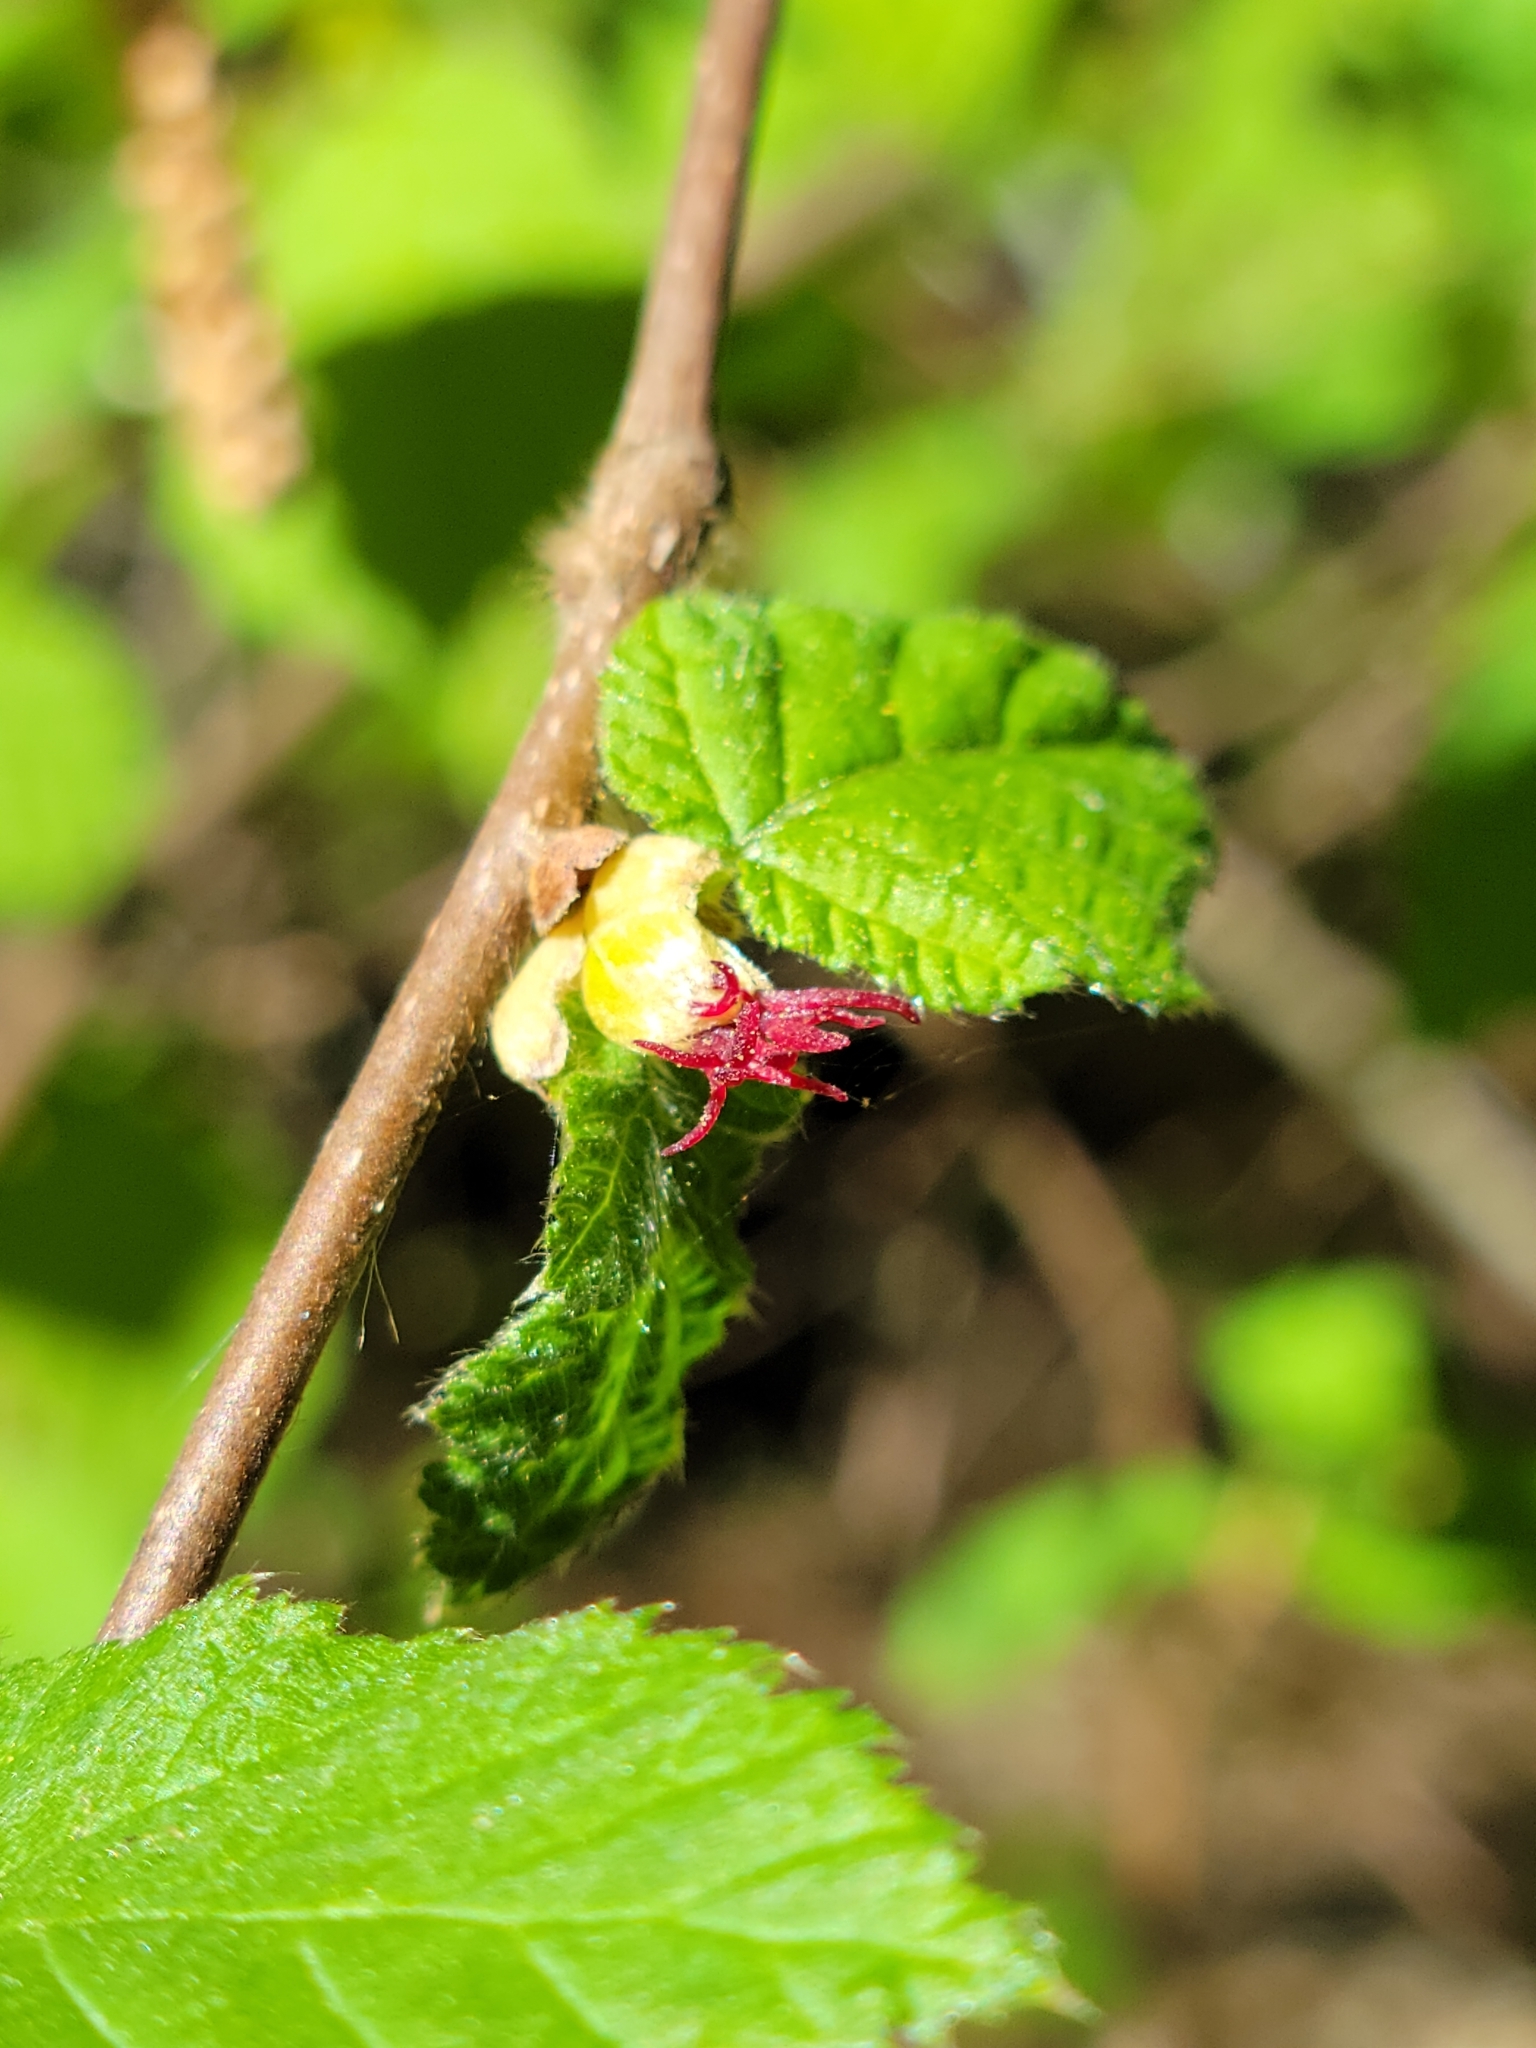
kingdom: Plantae
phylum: Tracheophyta
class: Magnoliopsida
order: Fagales
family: Betulaceae
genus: Corylus
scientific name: Corylus cornuta
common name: Beaked hazel
